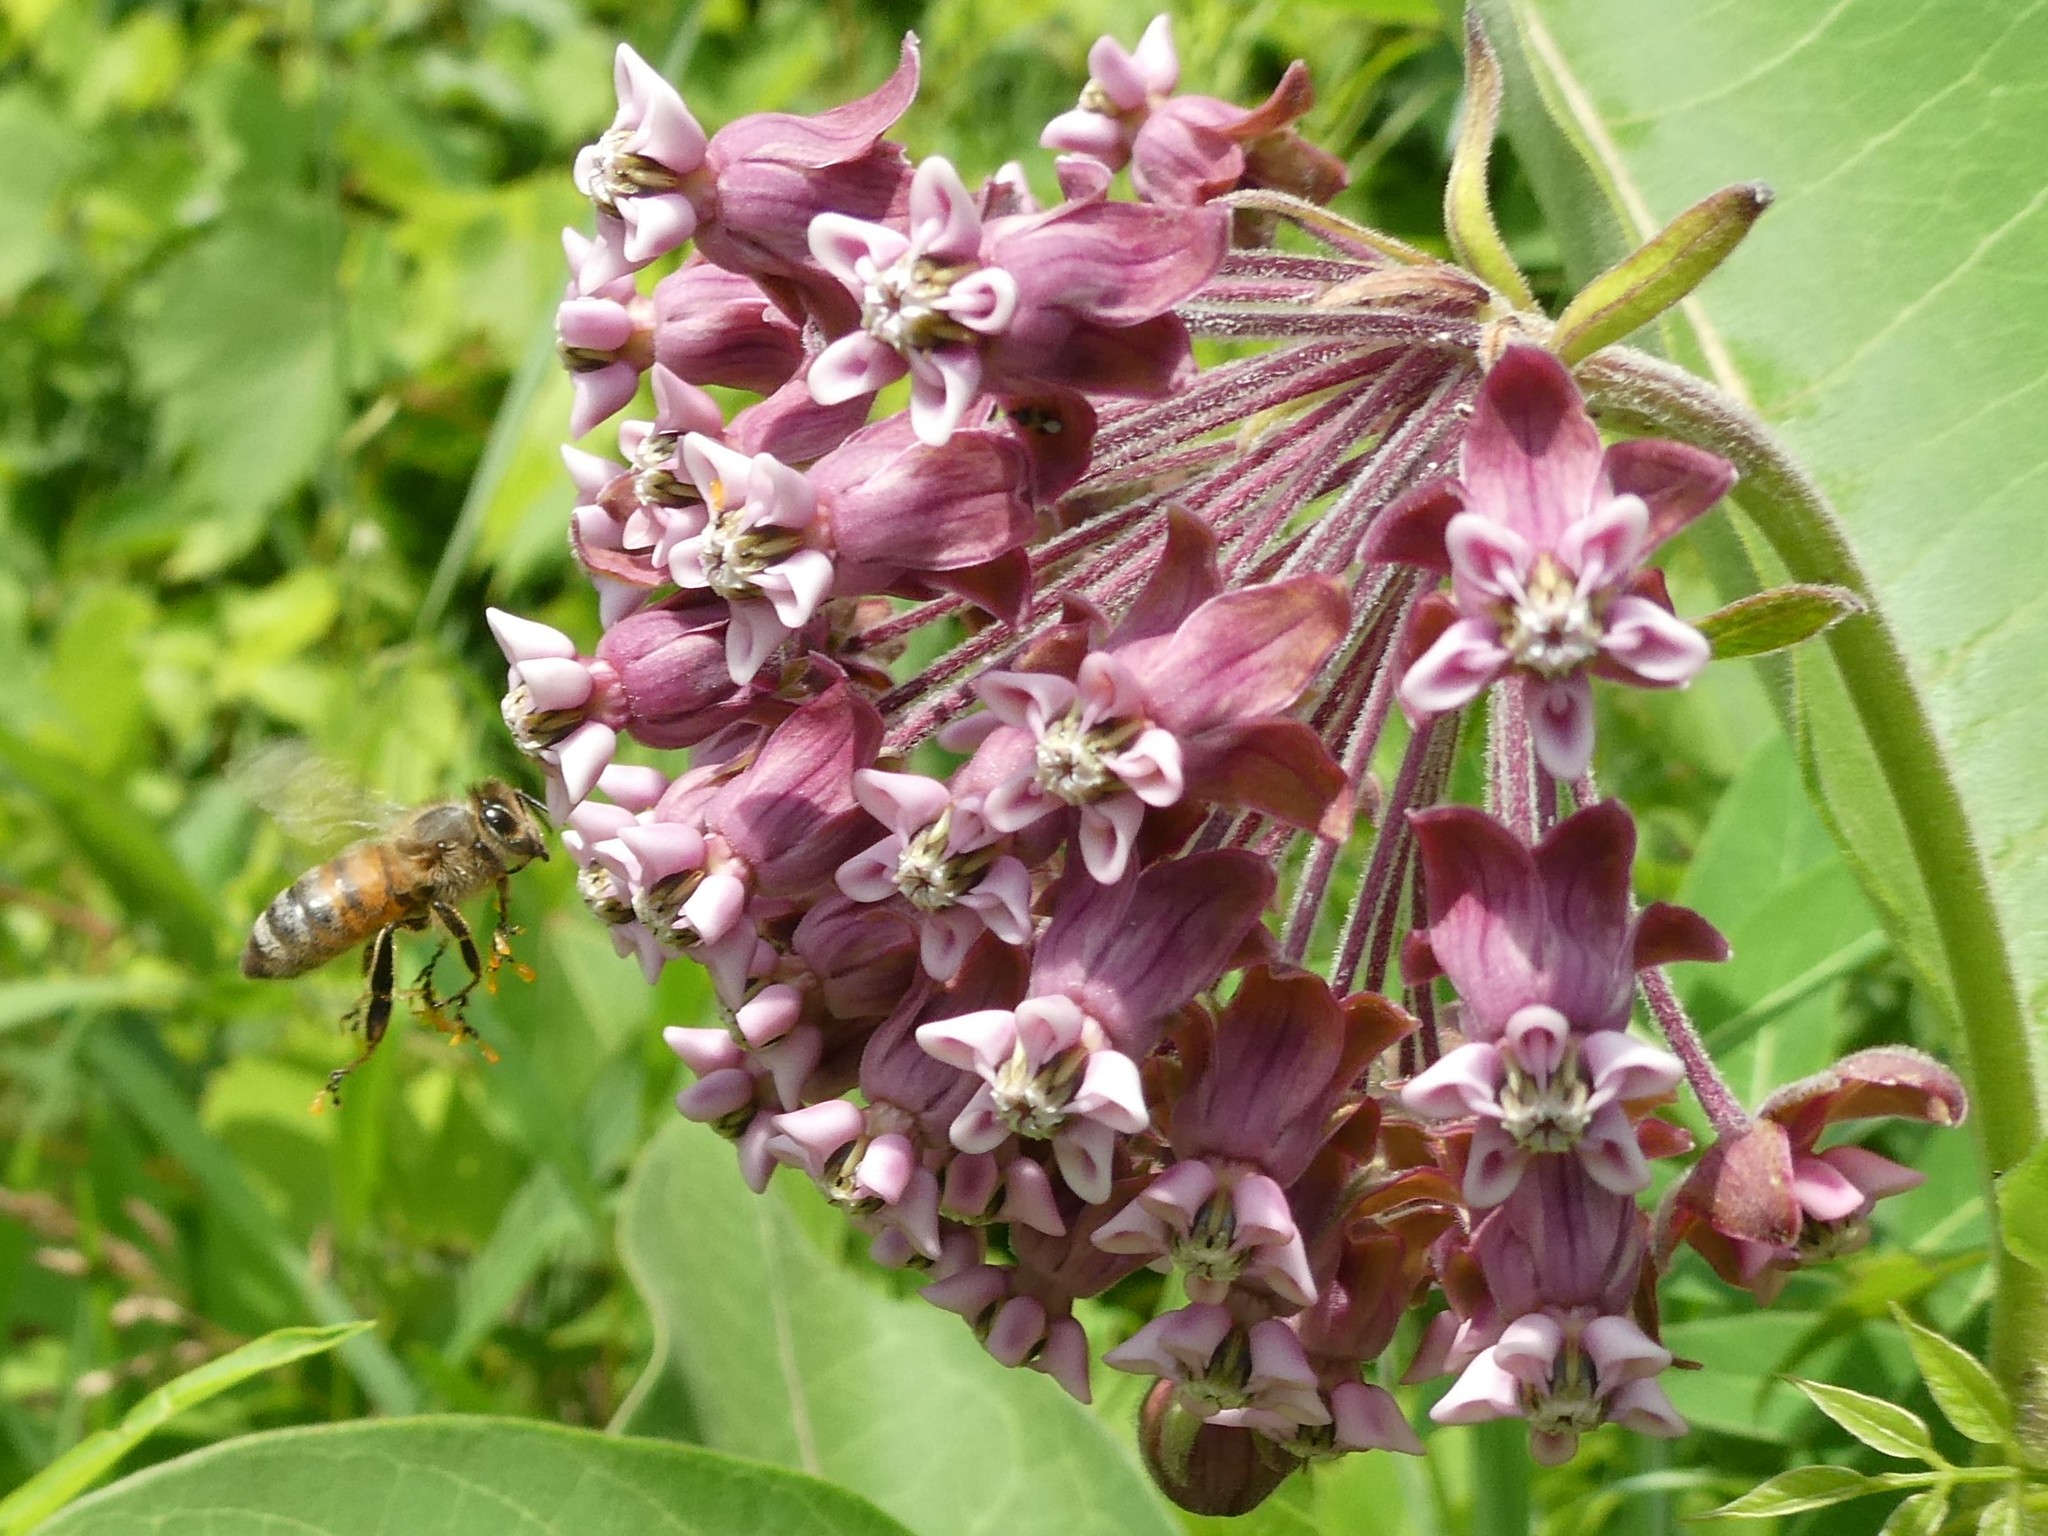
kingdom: Plantae
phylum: Tracheophyta
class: Magnoliopsida
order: Gentianales
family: Apocynaceae
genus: Asclepias
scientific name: Asclepias syriaca
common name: Common milkweed
